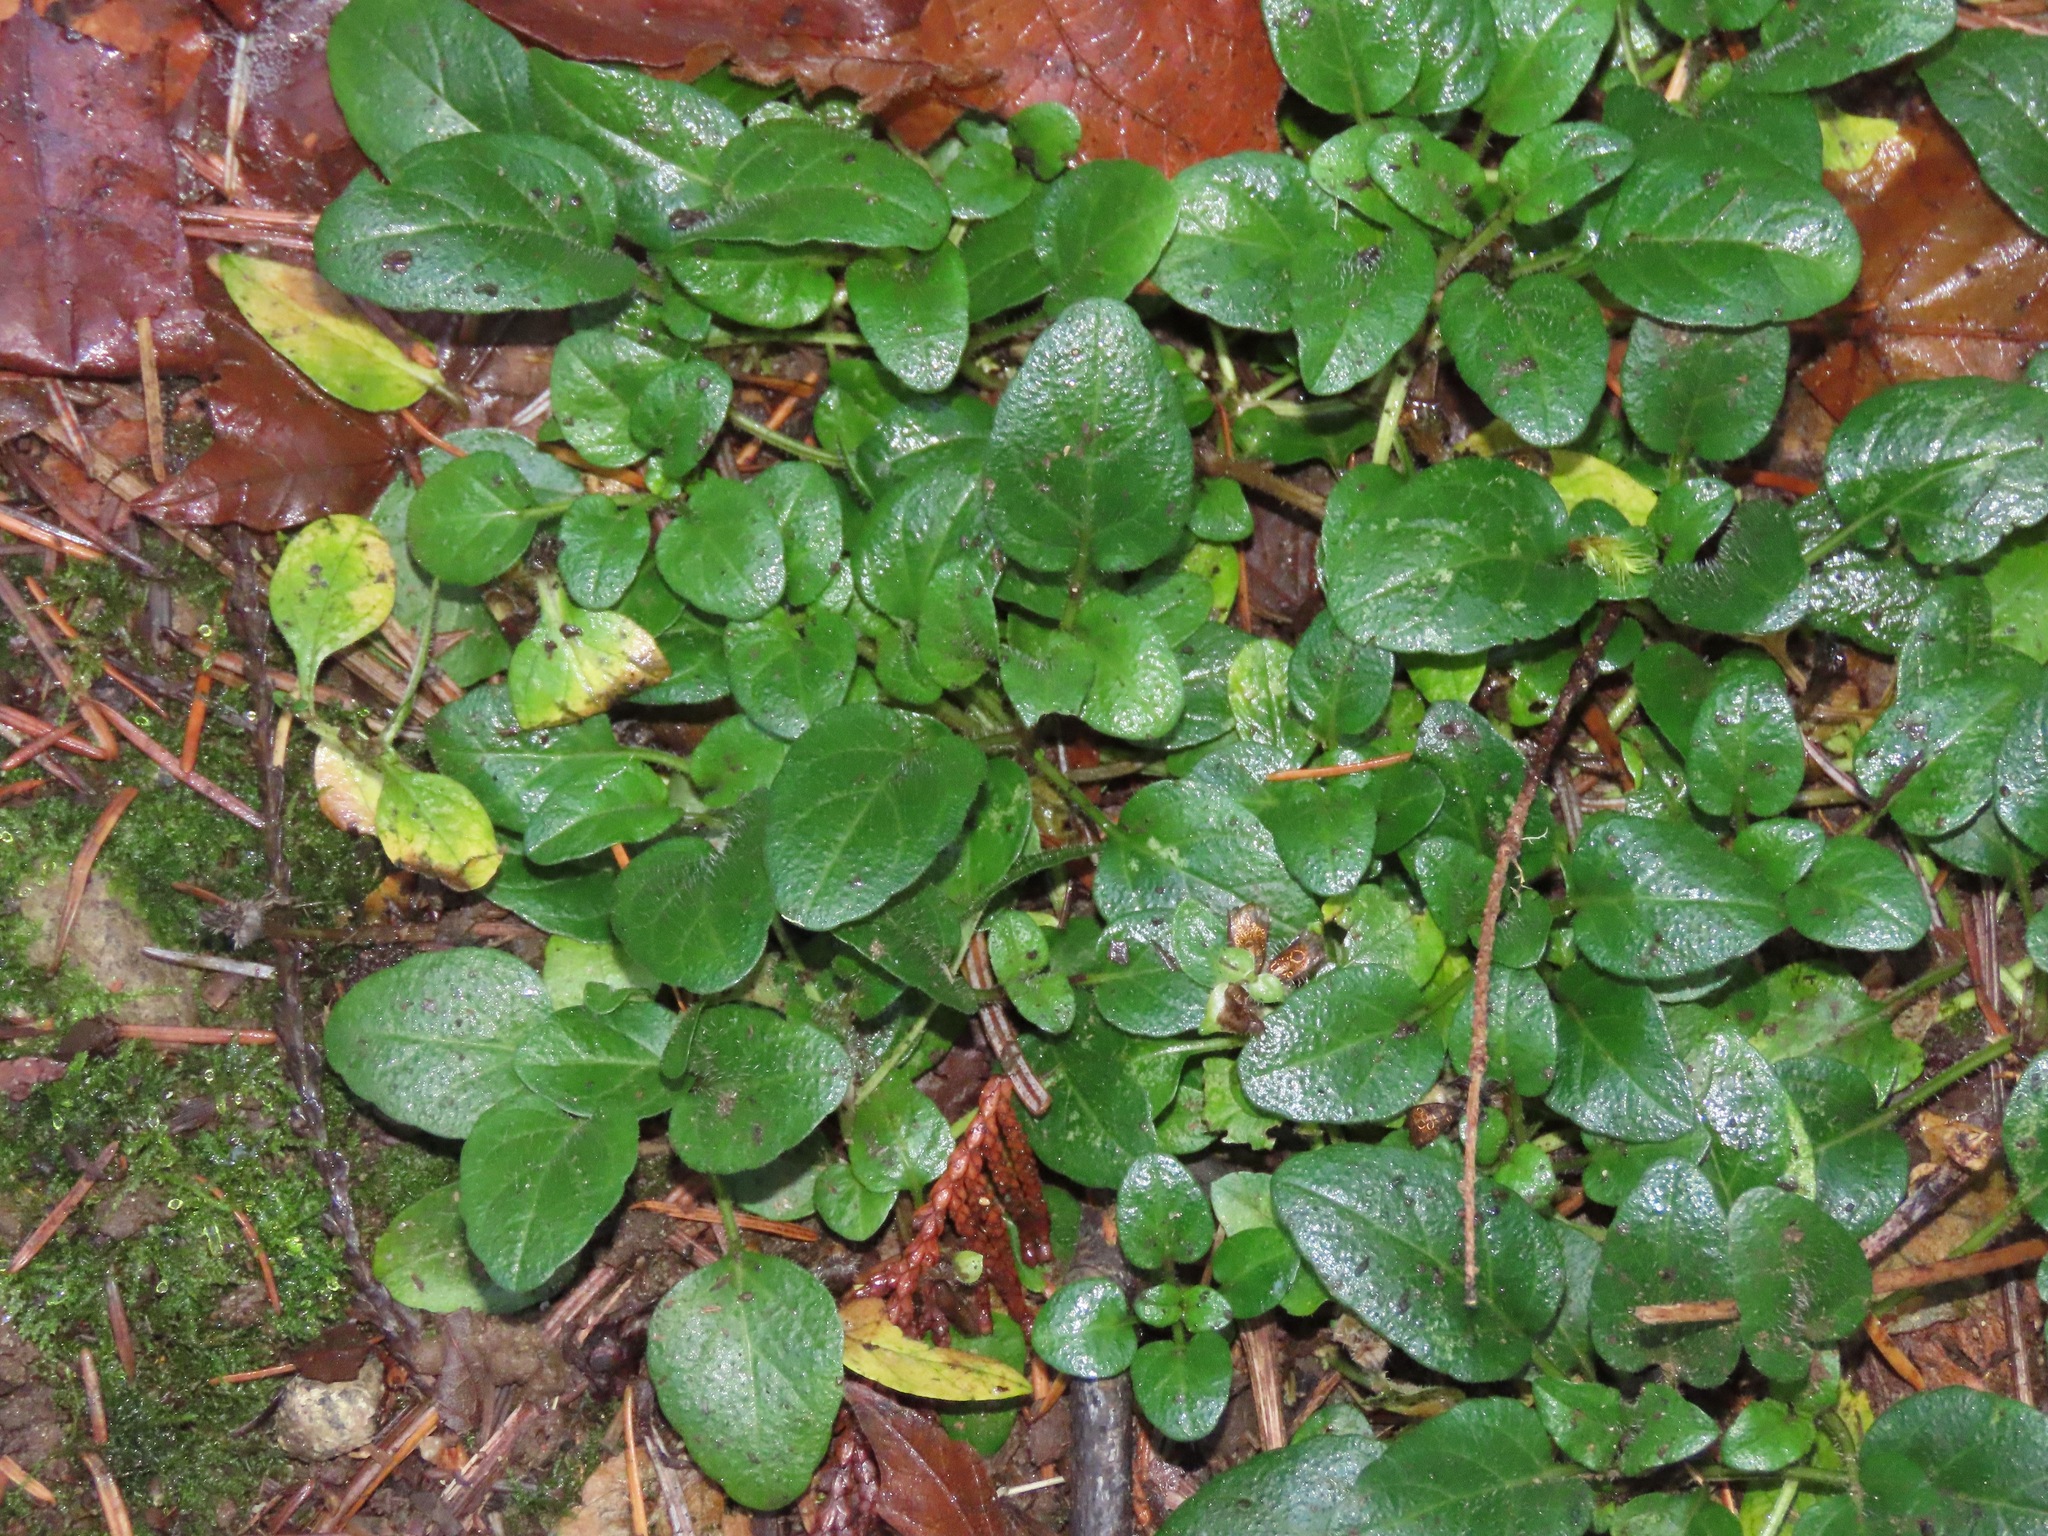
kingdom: Plantae
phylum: Tracheophyta
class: Magnoliopsida
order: Lamiales
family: Lamiaceae
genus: Prunella
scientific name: Prunella vulgaris
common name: Heal-all
